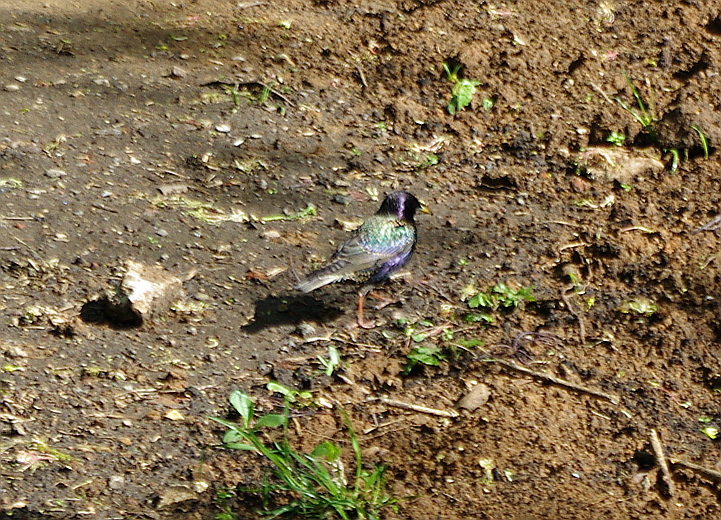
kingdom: Animalia
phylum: Chordata
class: Aves
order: Passeriformes
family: Sturnidae
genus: Sturnus
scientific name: Sturnus vulgaris
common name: Common starling
